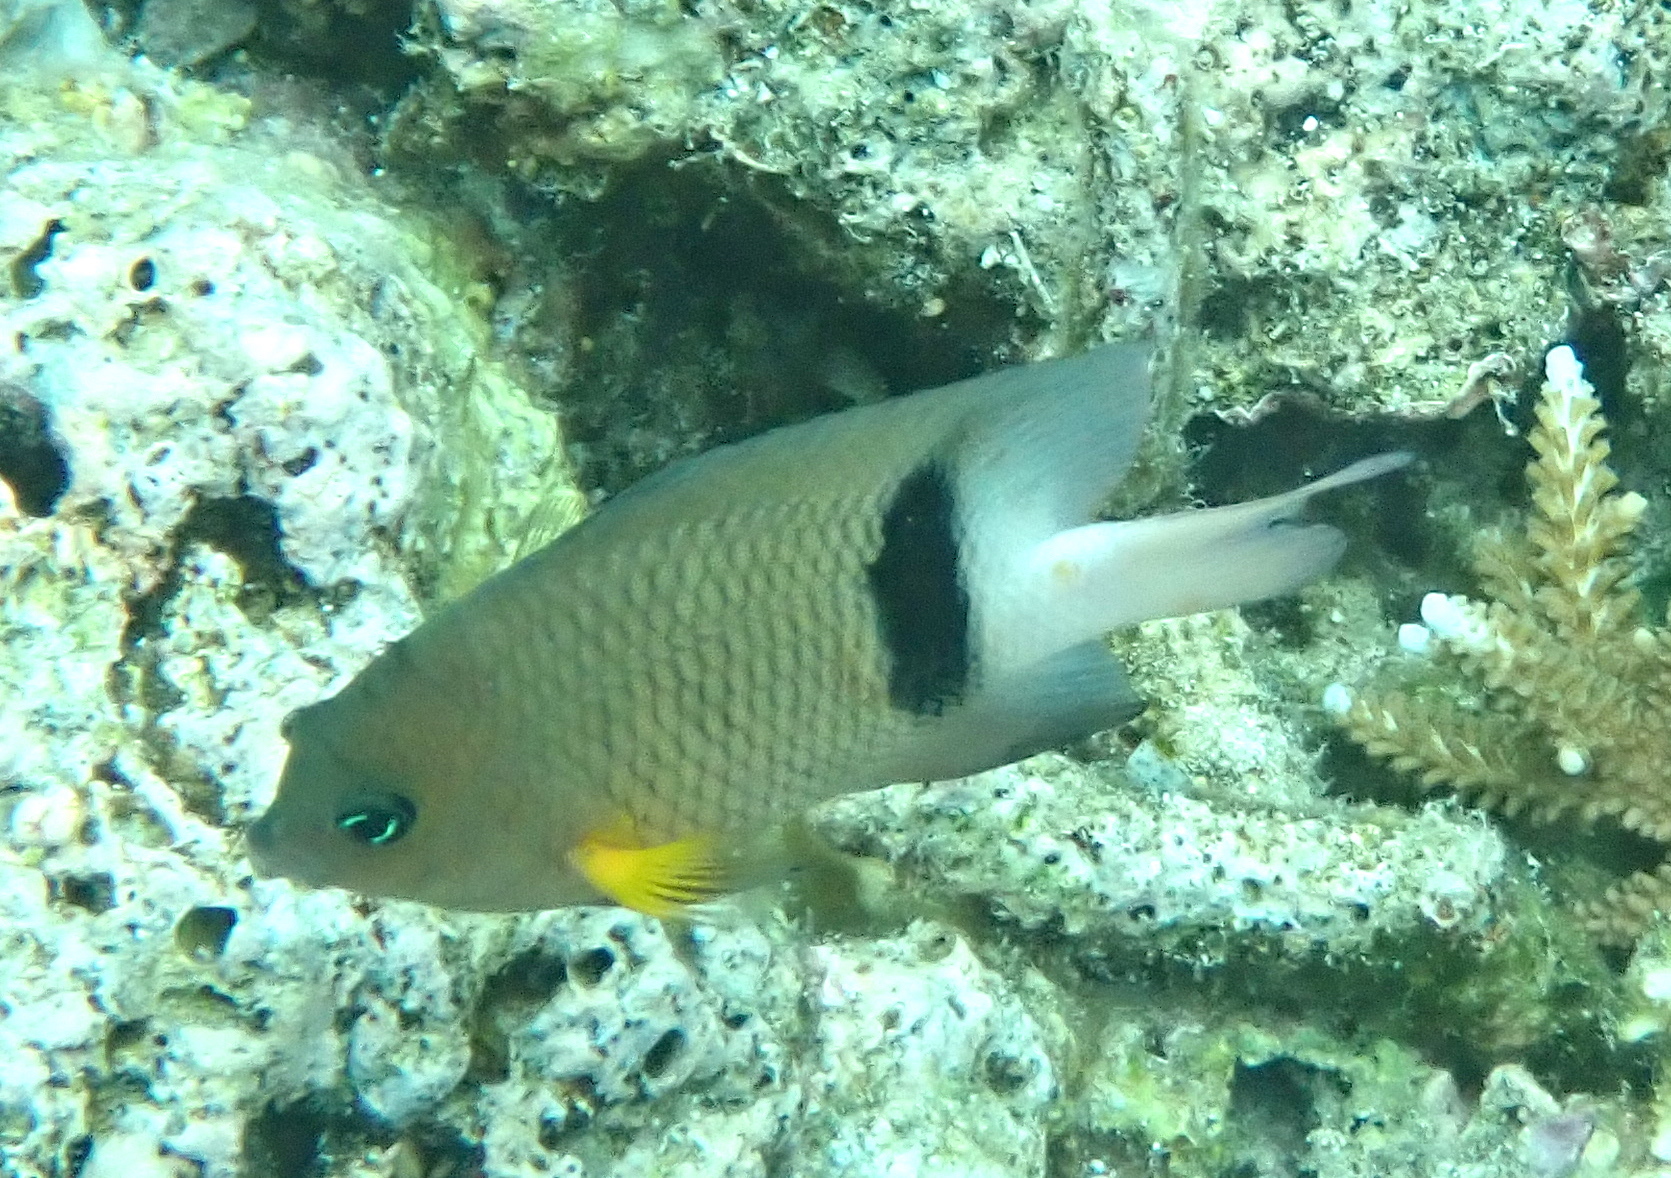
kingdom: Animalia
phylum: Chordata
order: Perciformes
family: Pomacentridae
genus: Plectroglyphidodon
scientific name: Plectroglyphidodon dickii
